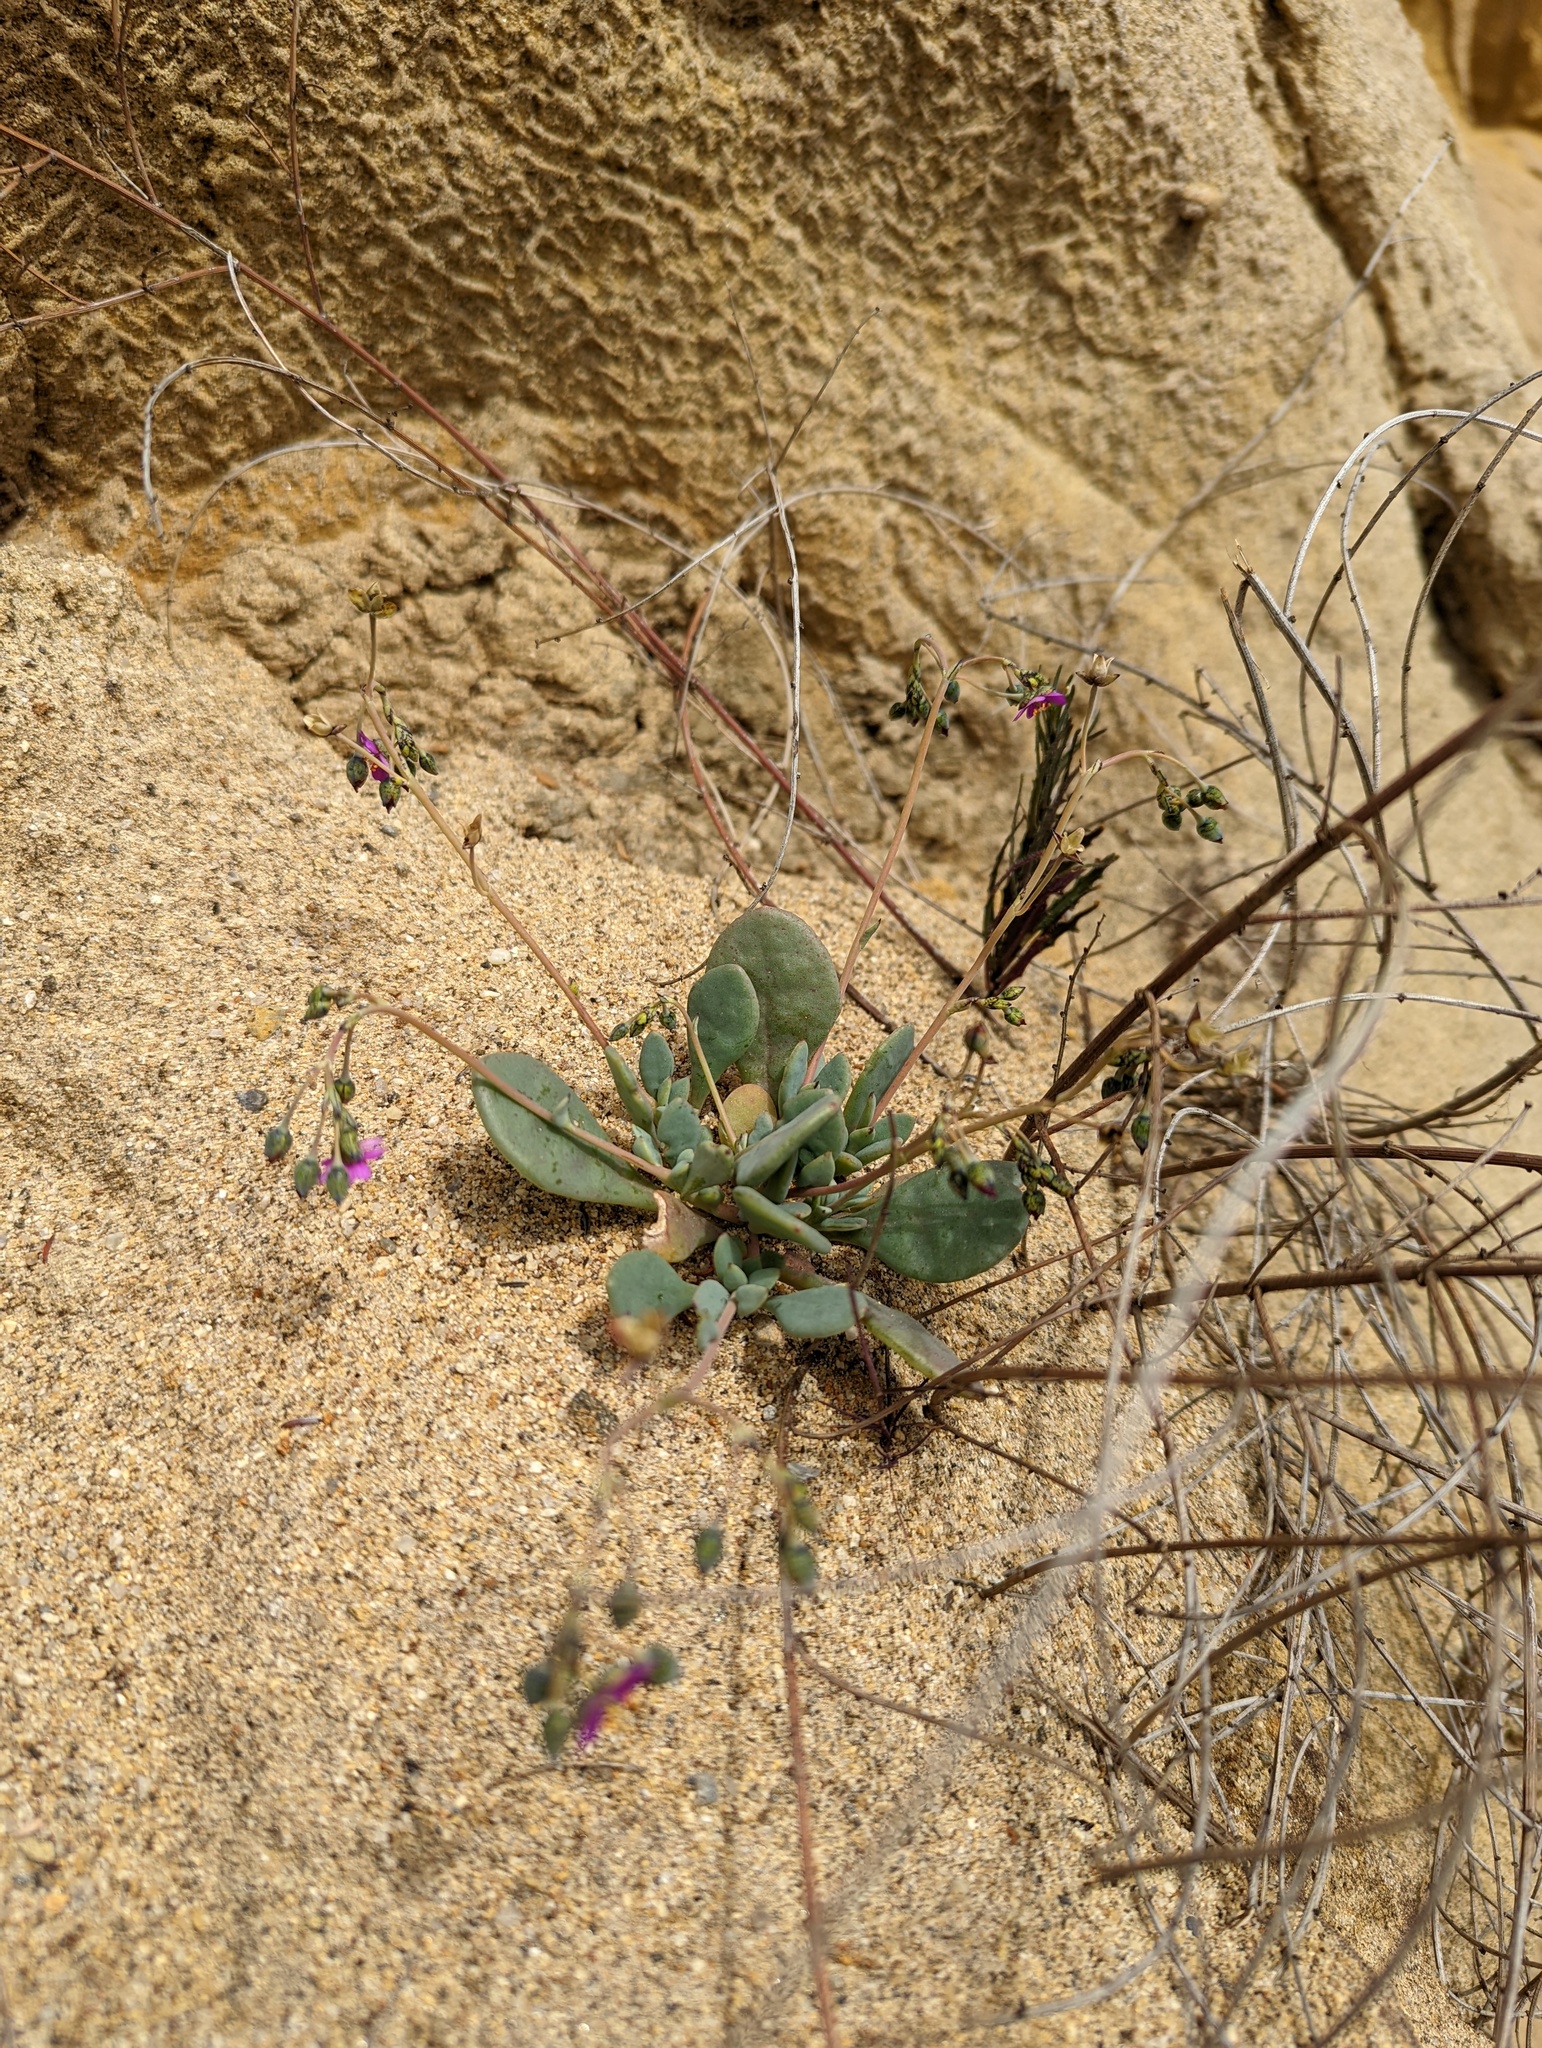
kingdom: Plantae
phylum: Tracheophyta
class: Magnoliopsida
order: Caryophyllales
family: Montiaceae
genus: Cistanthe
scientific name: Cistanthe maritima
